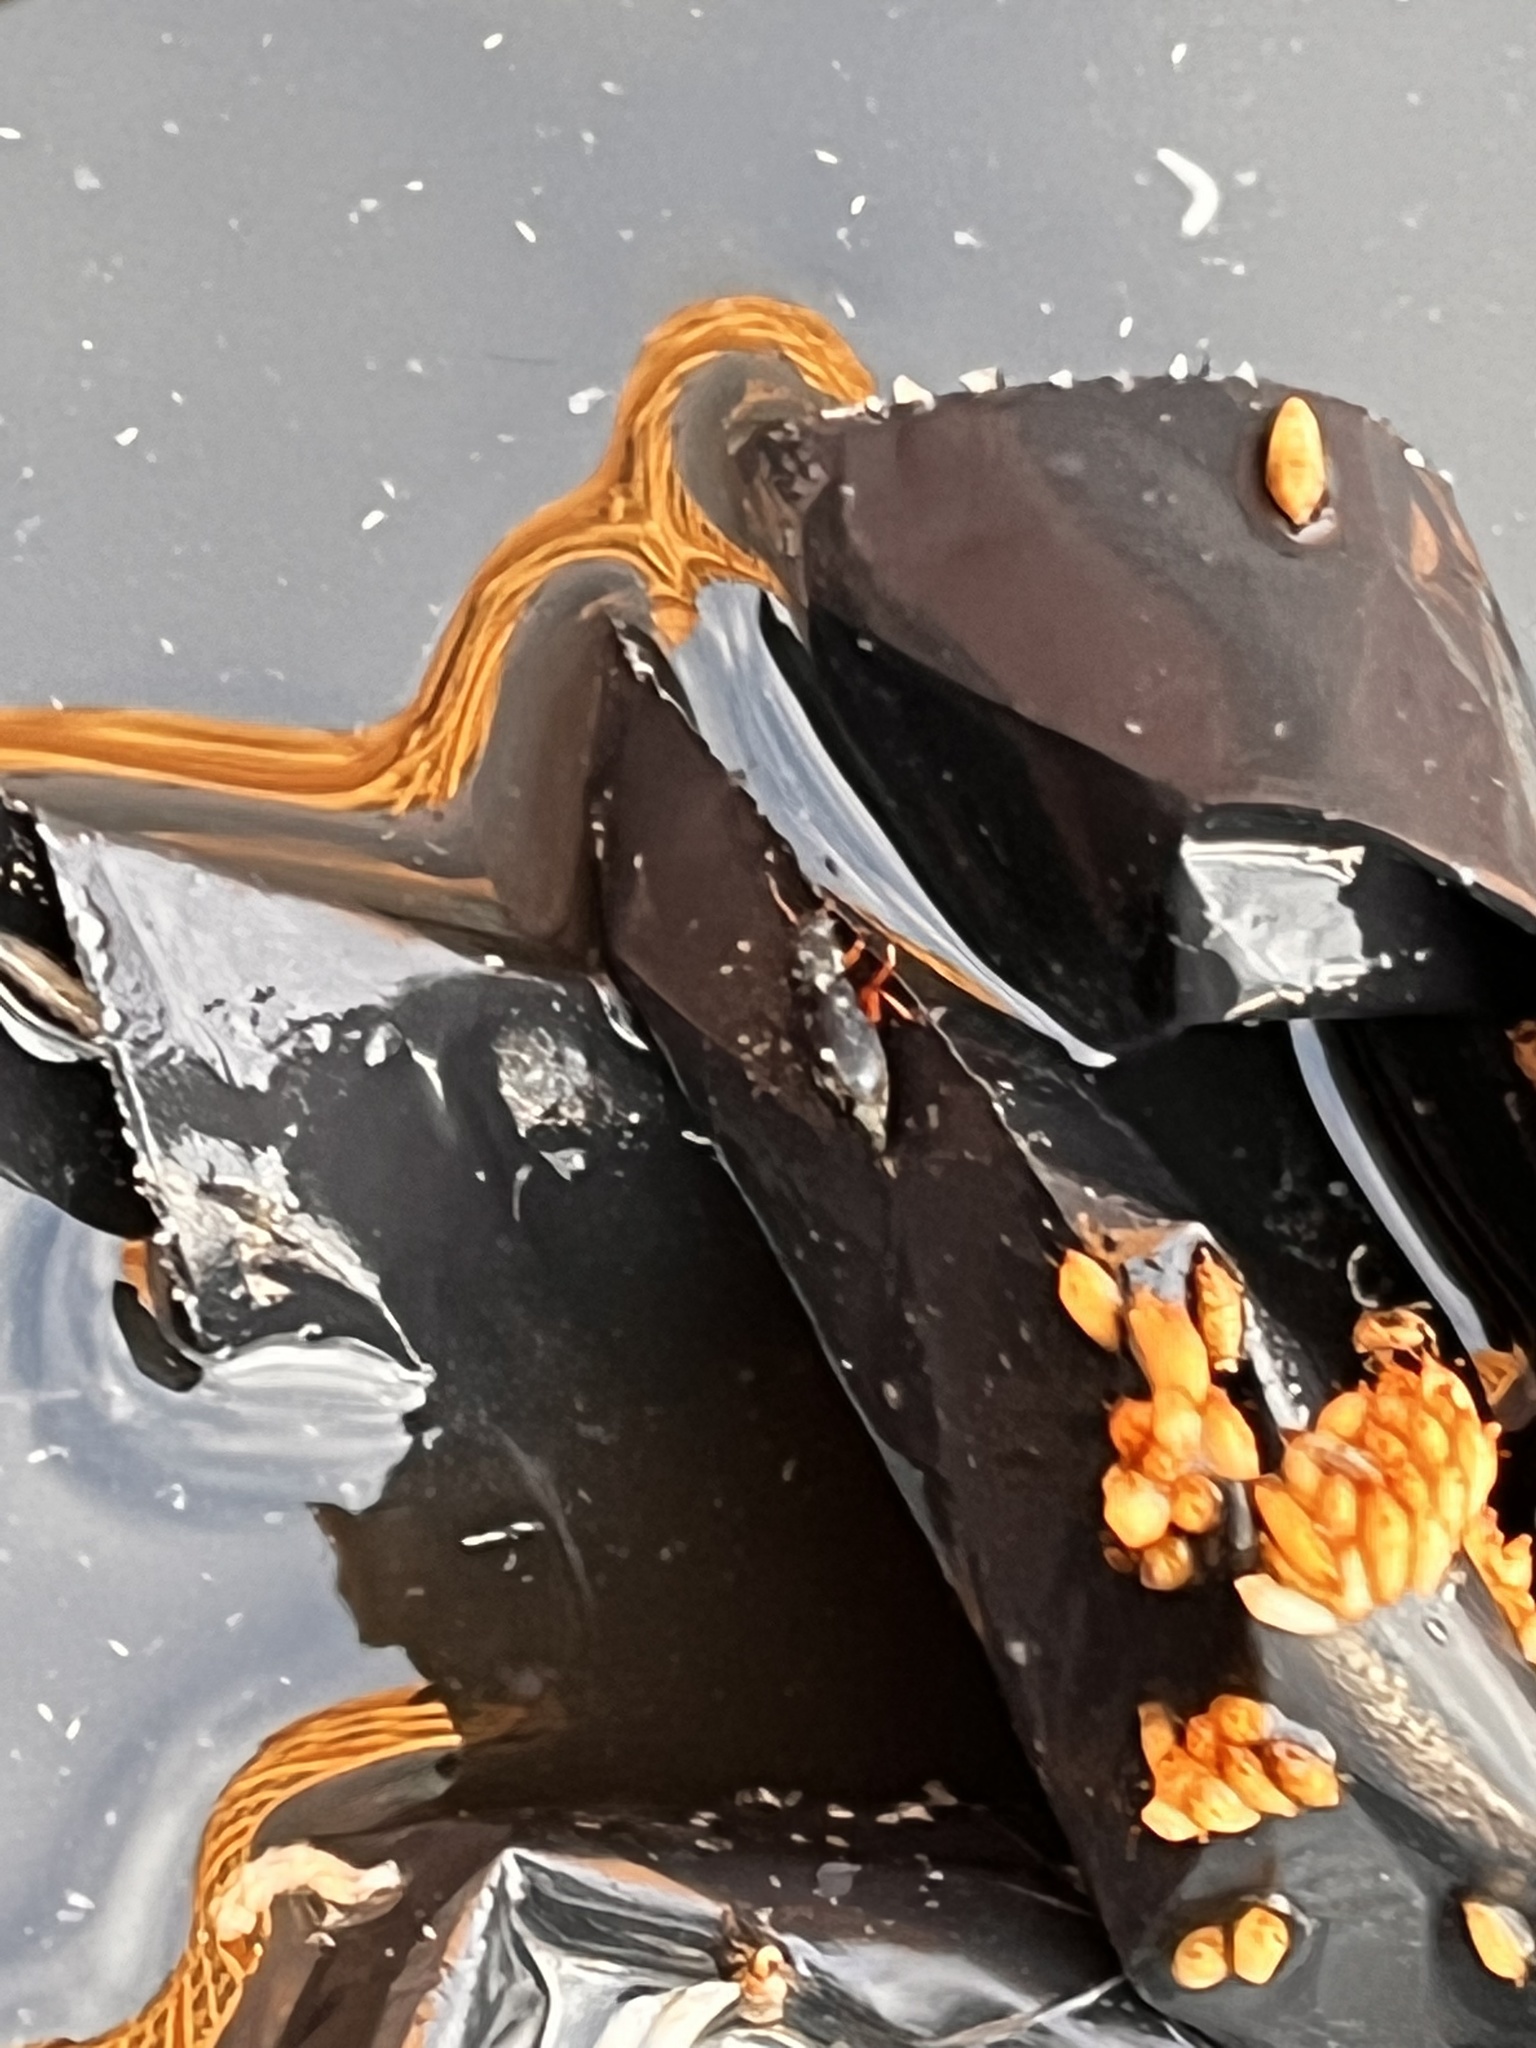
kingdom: Animalia
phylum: Arthropoda
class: Insecta
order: Coleoptera
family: Cleridae
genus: Necrobia
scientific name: Necrobia rufipes
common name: Red-legged ham beetle
